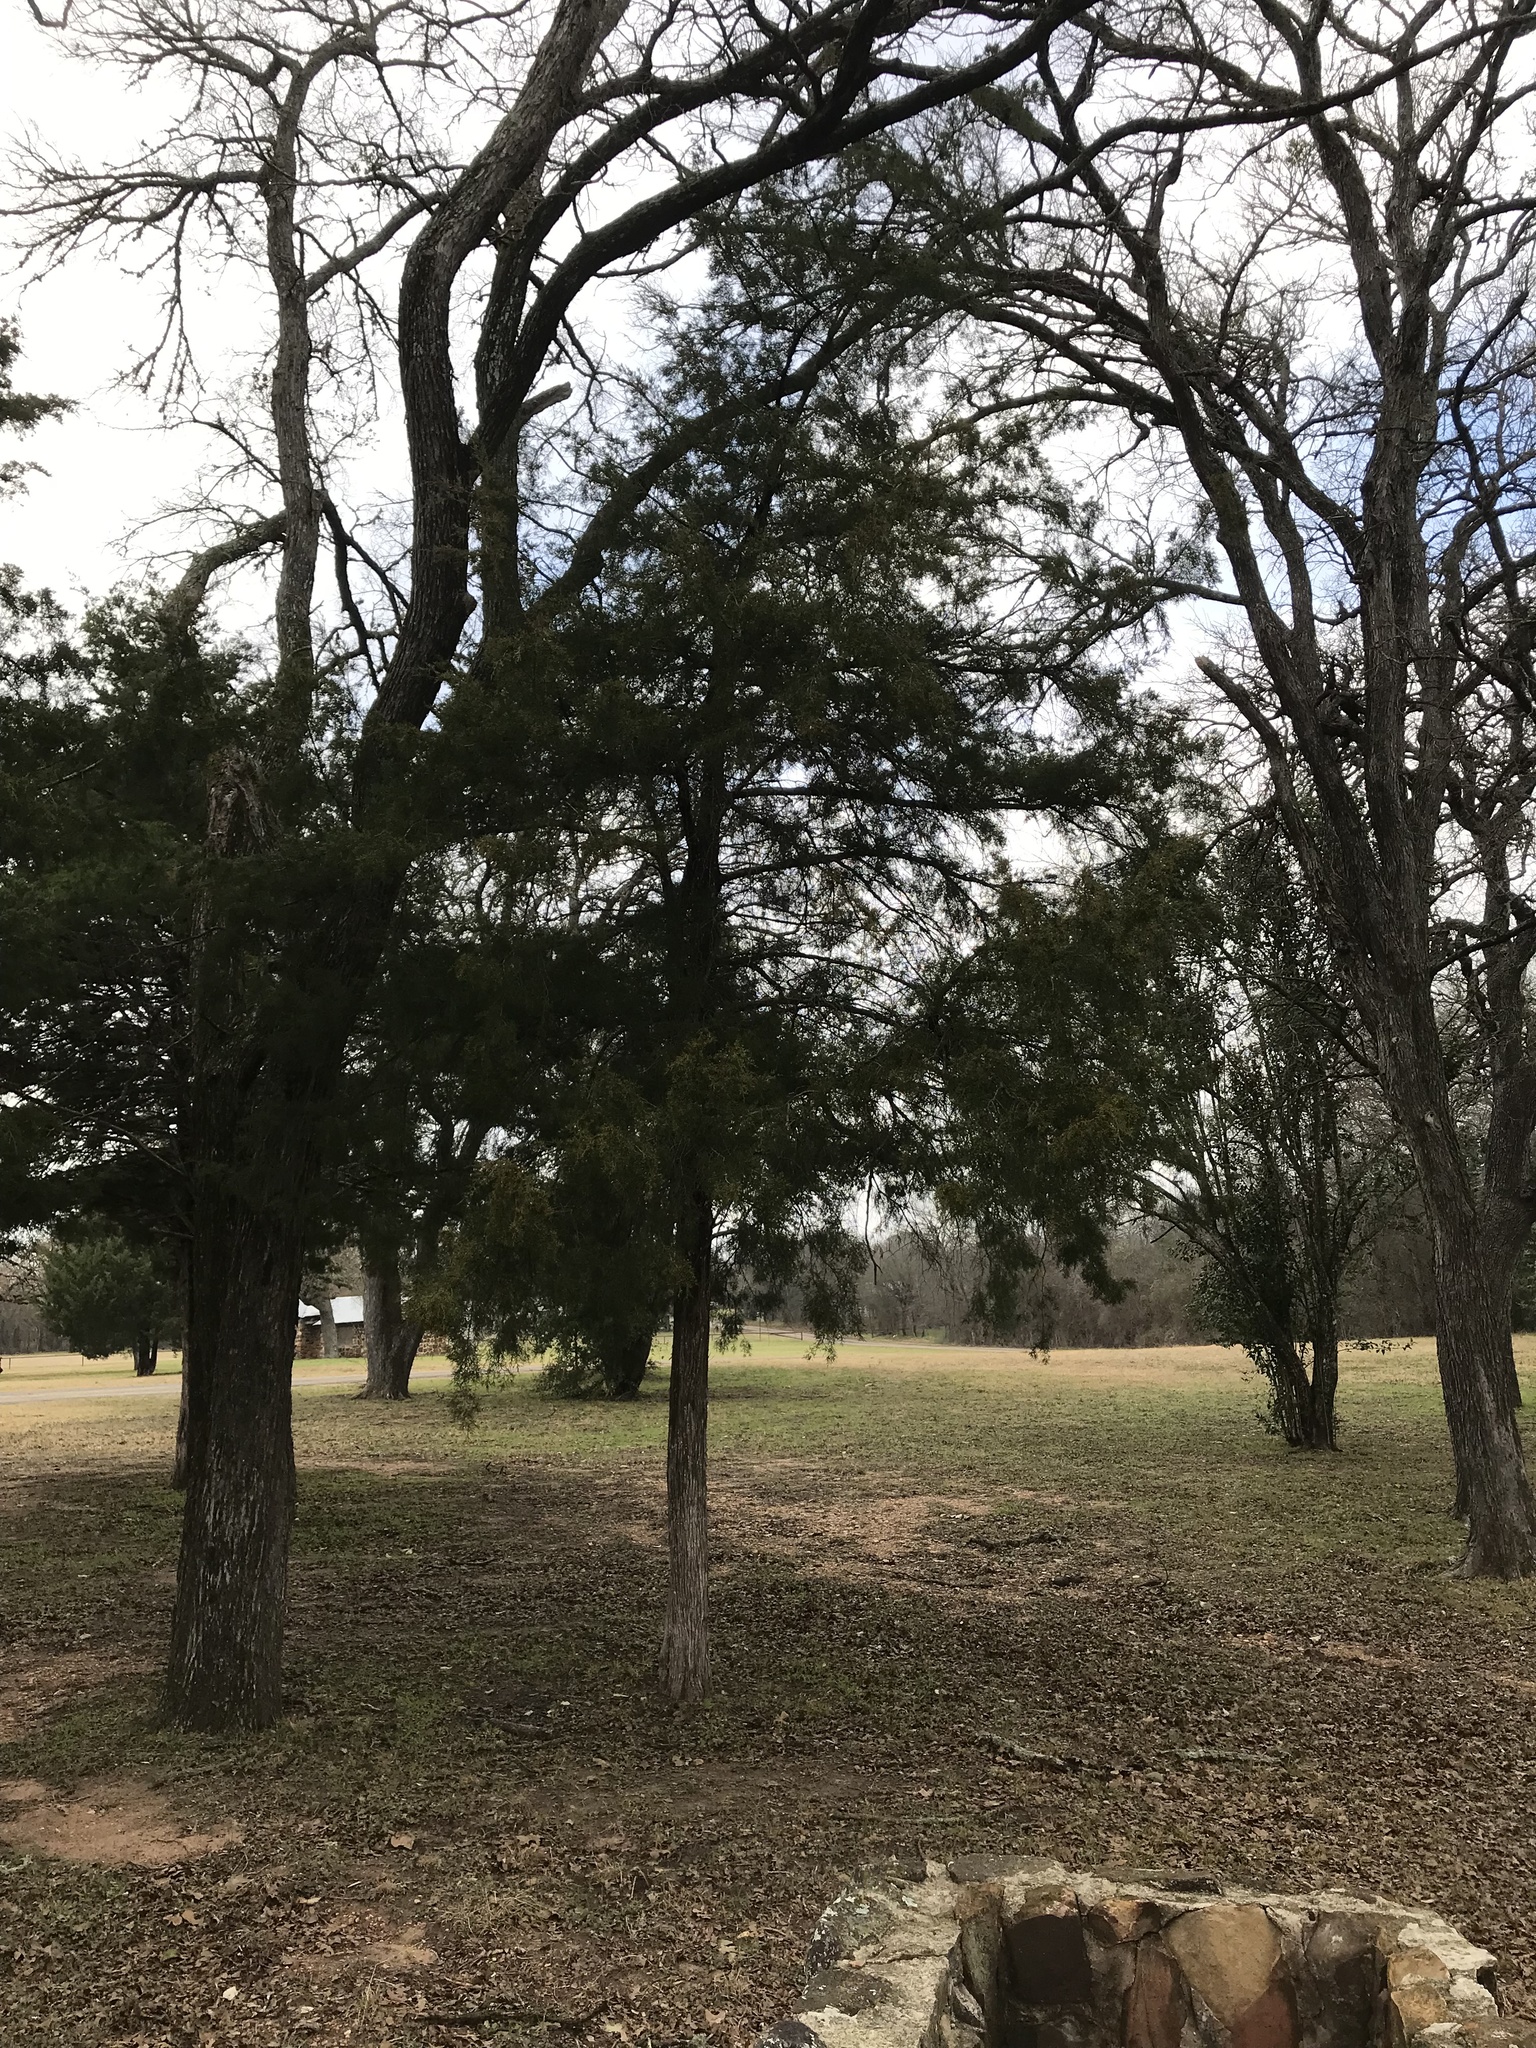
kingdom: Plantae
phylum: Tracheophyta
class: Pinopsida
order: Pinales
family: Cupressaceae
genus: Juniperus
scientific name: Juniperus virginiana
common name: Red juniper
